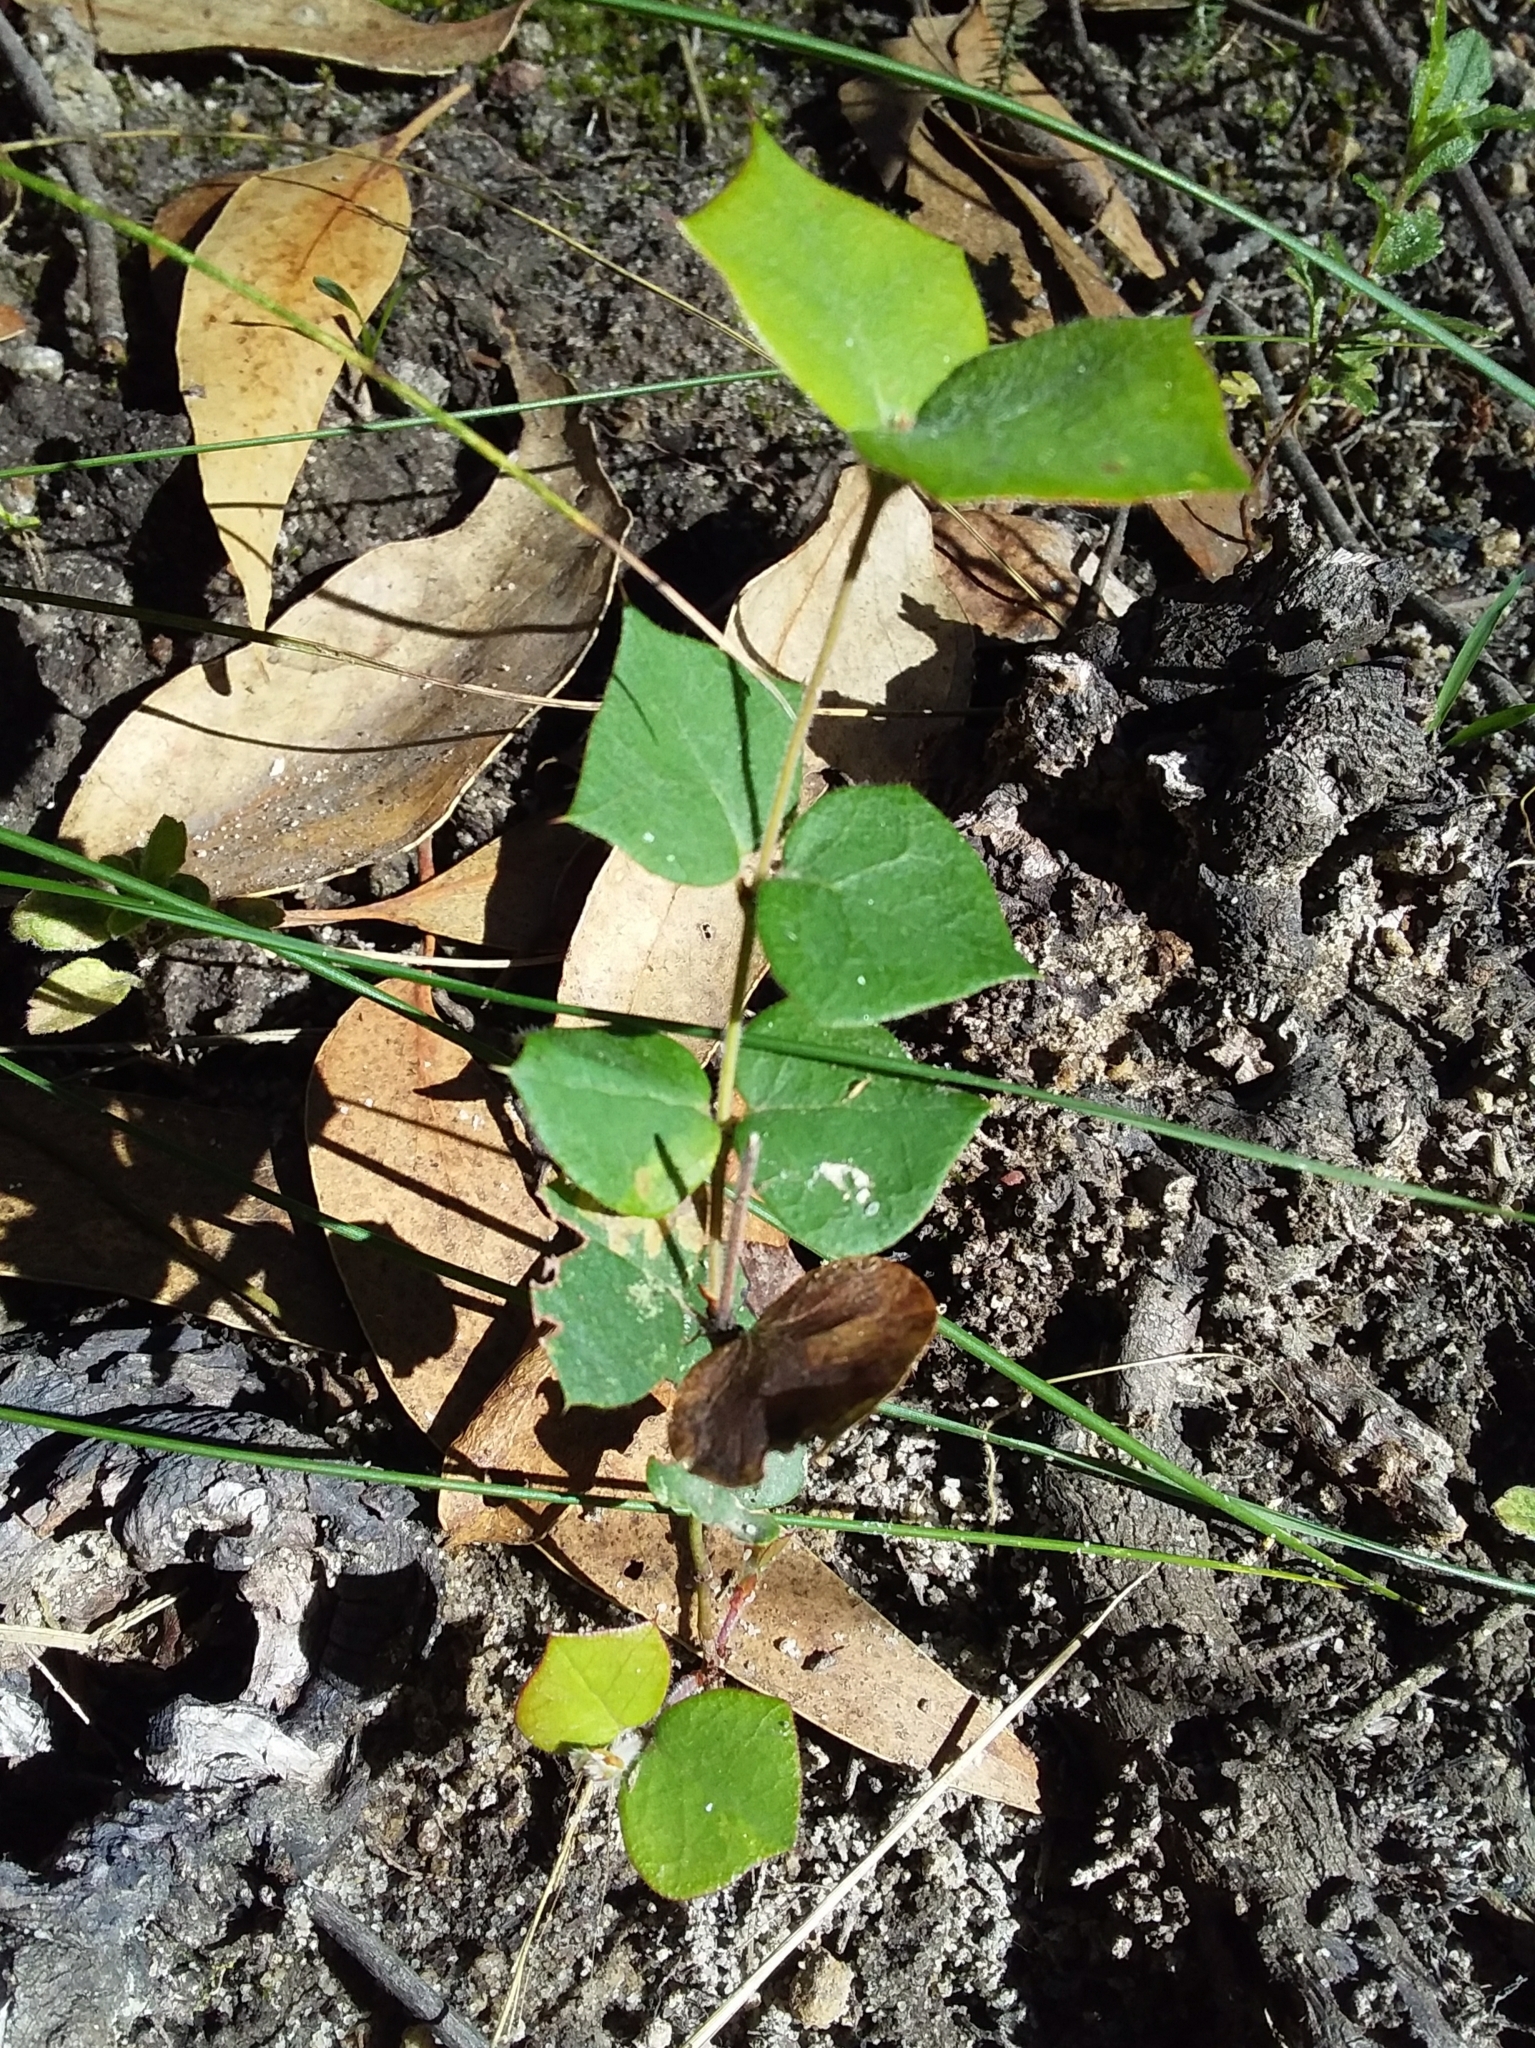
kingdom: Plantae
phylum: Tracheophyta
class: Magnoliopsida
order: Fabales
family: Fabaceae
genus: Platylobium
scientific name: Platylobium obtusangulum
